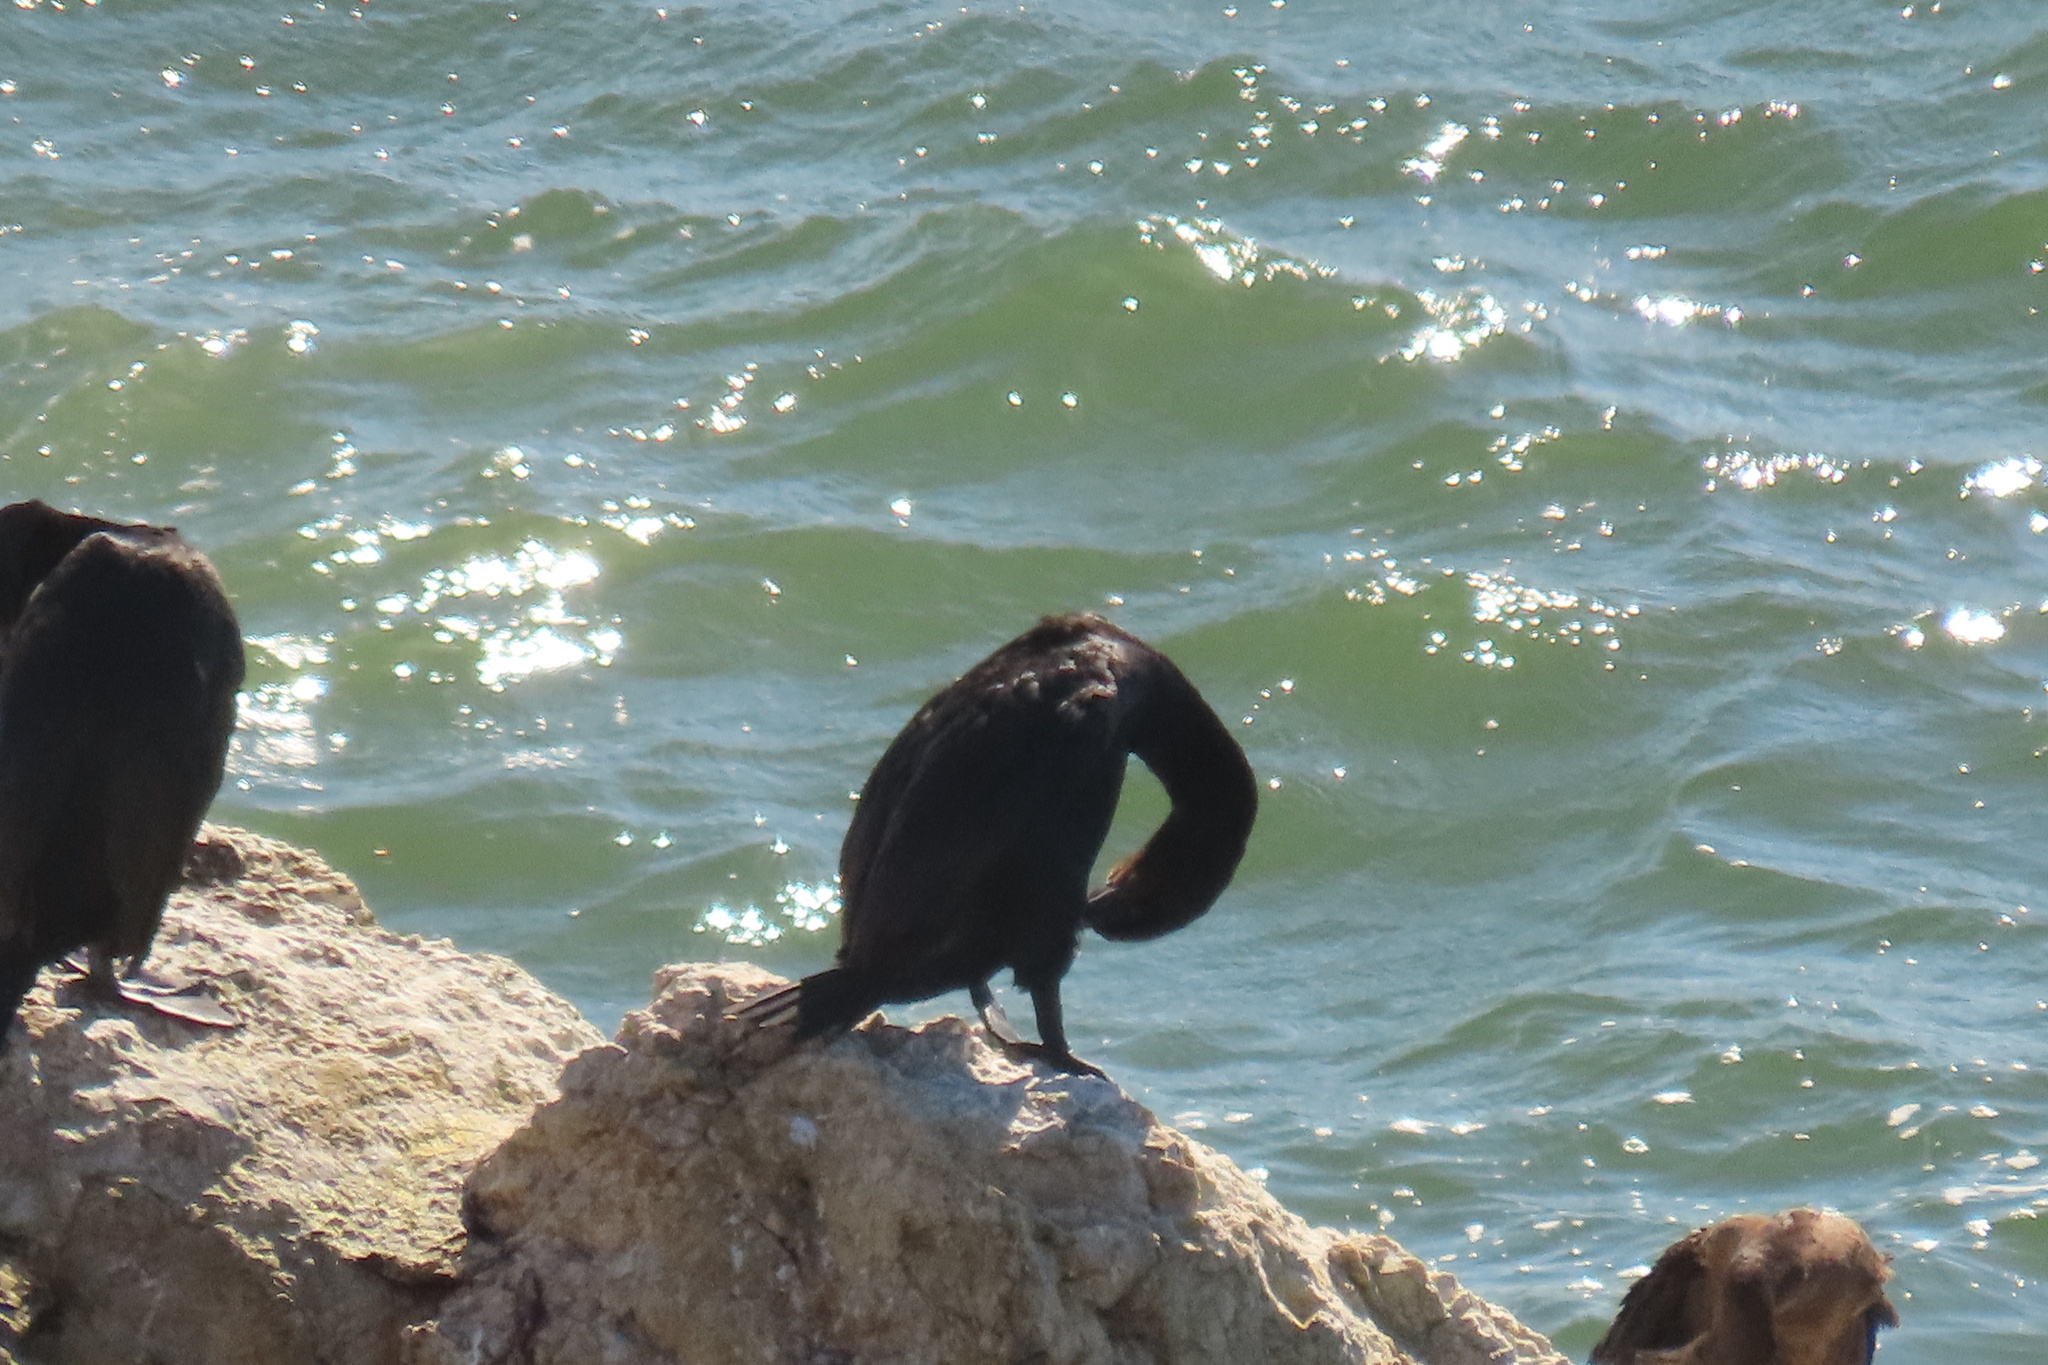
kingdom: Animalia
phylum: Chordata
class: Aves
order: Suliformes
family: Phalacrocoracidae
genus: Urile
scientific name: Urile penicillatus
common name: Brandt's cormorant
